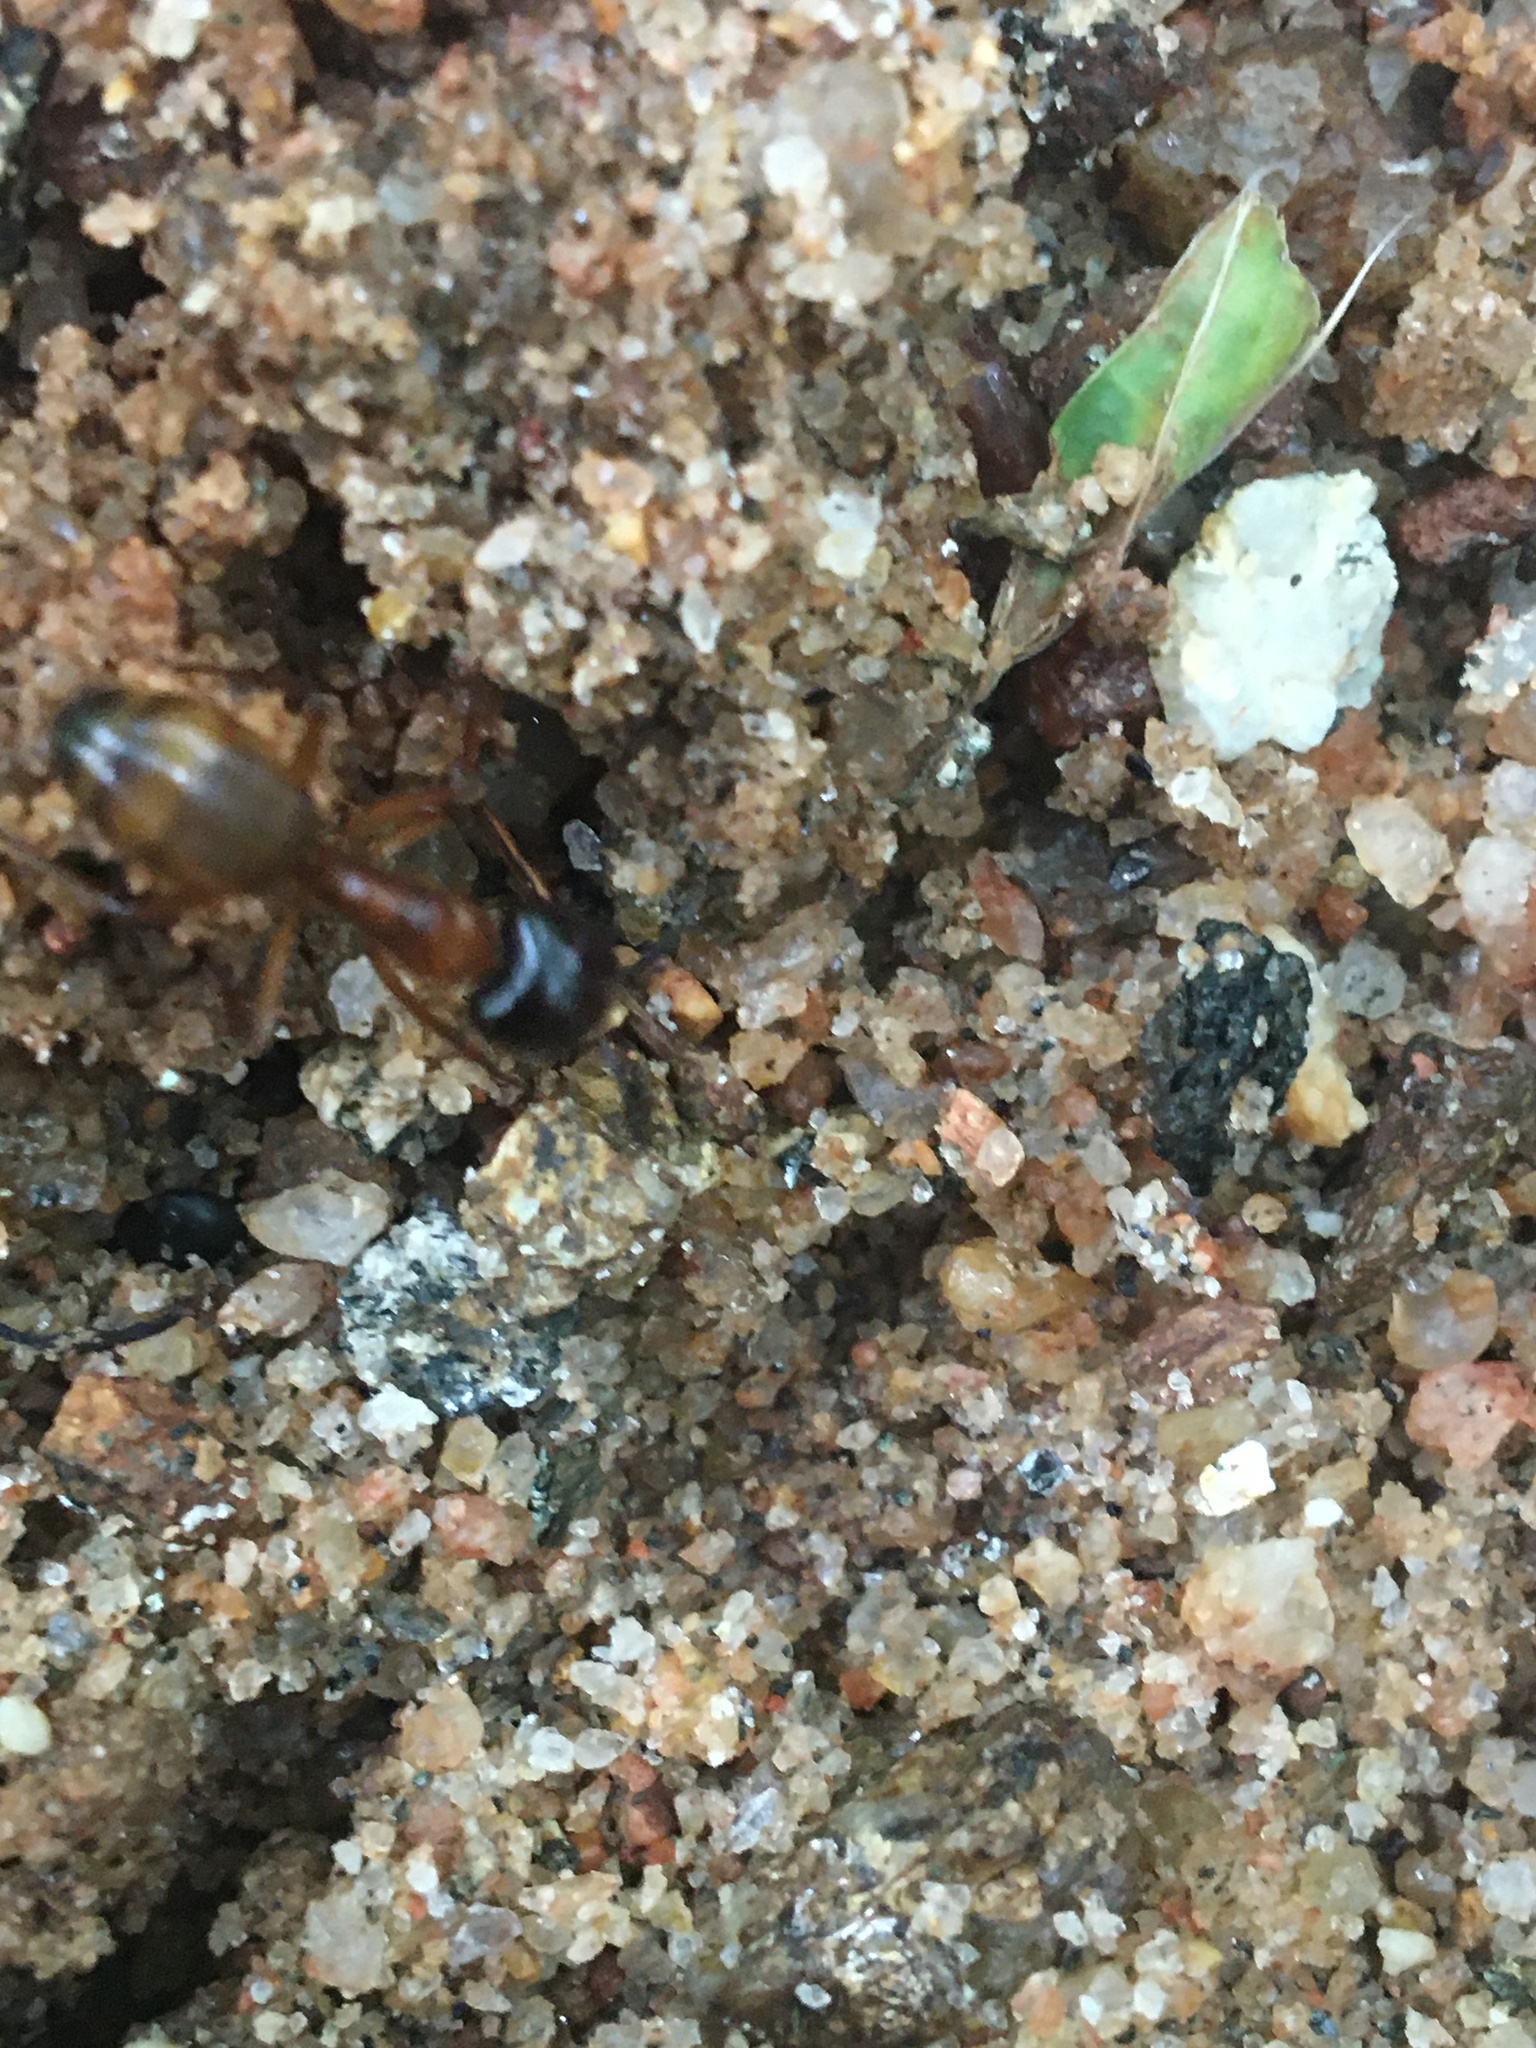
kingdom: Animalia
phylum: Arthropoda
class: Insecta
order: Hymenoptera
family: Formicidae
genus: Camponotus
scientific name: Camponotus americanus
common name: American carpenter ant
